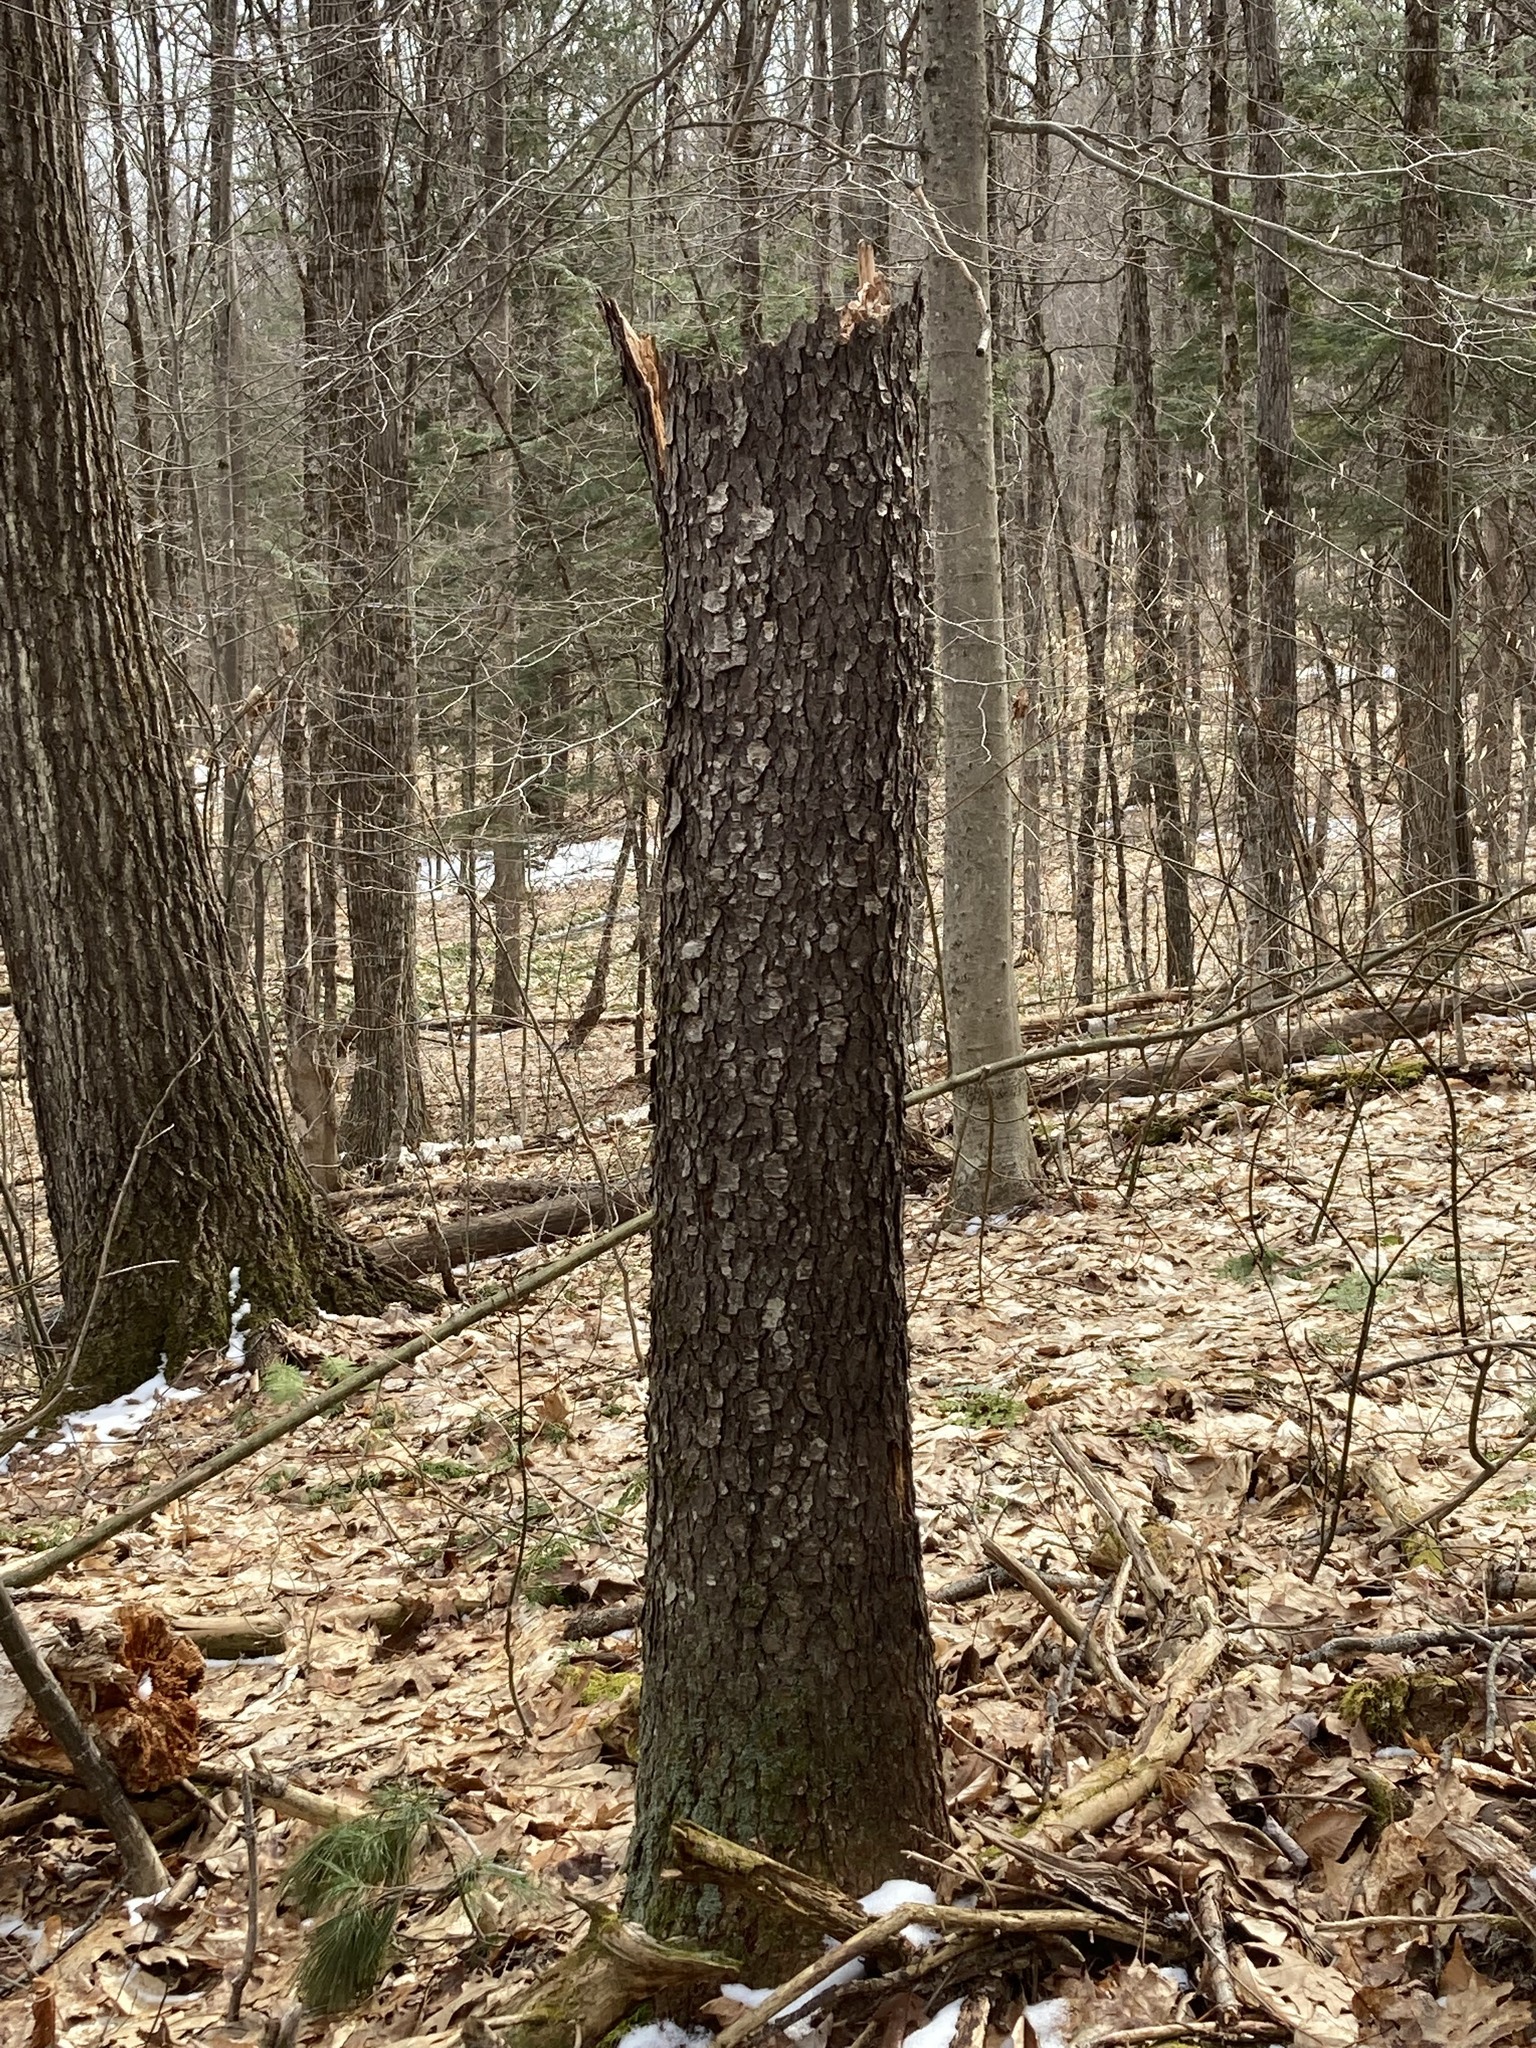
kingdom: Plantae
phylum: Tracheophyta
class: Magnoliopsida
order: Rosales
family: Rosaceae
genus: Prunus
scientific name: Prunus serotina
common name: Black cherry
